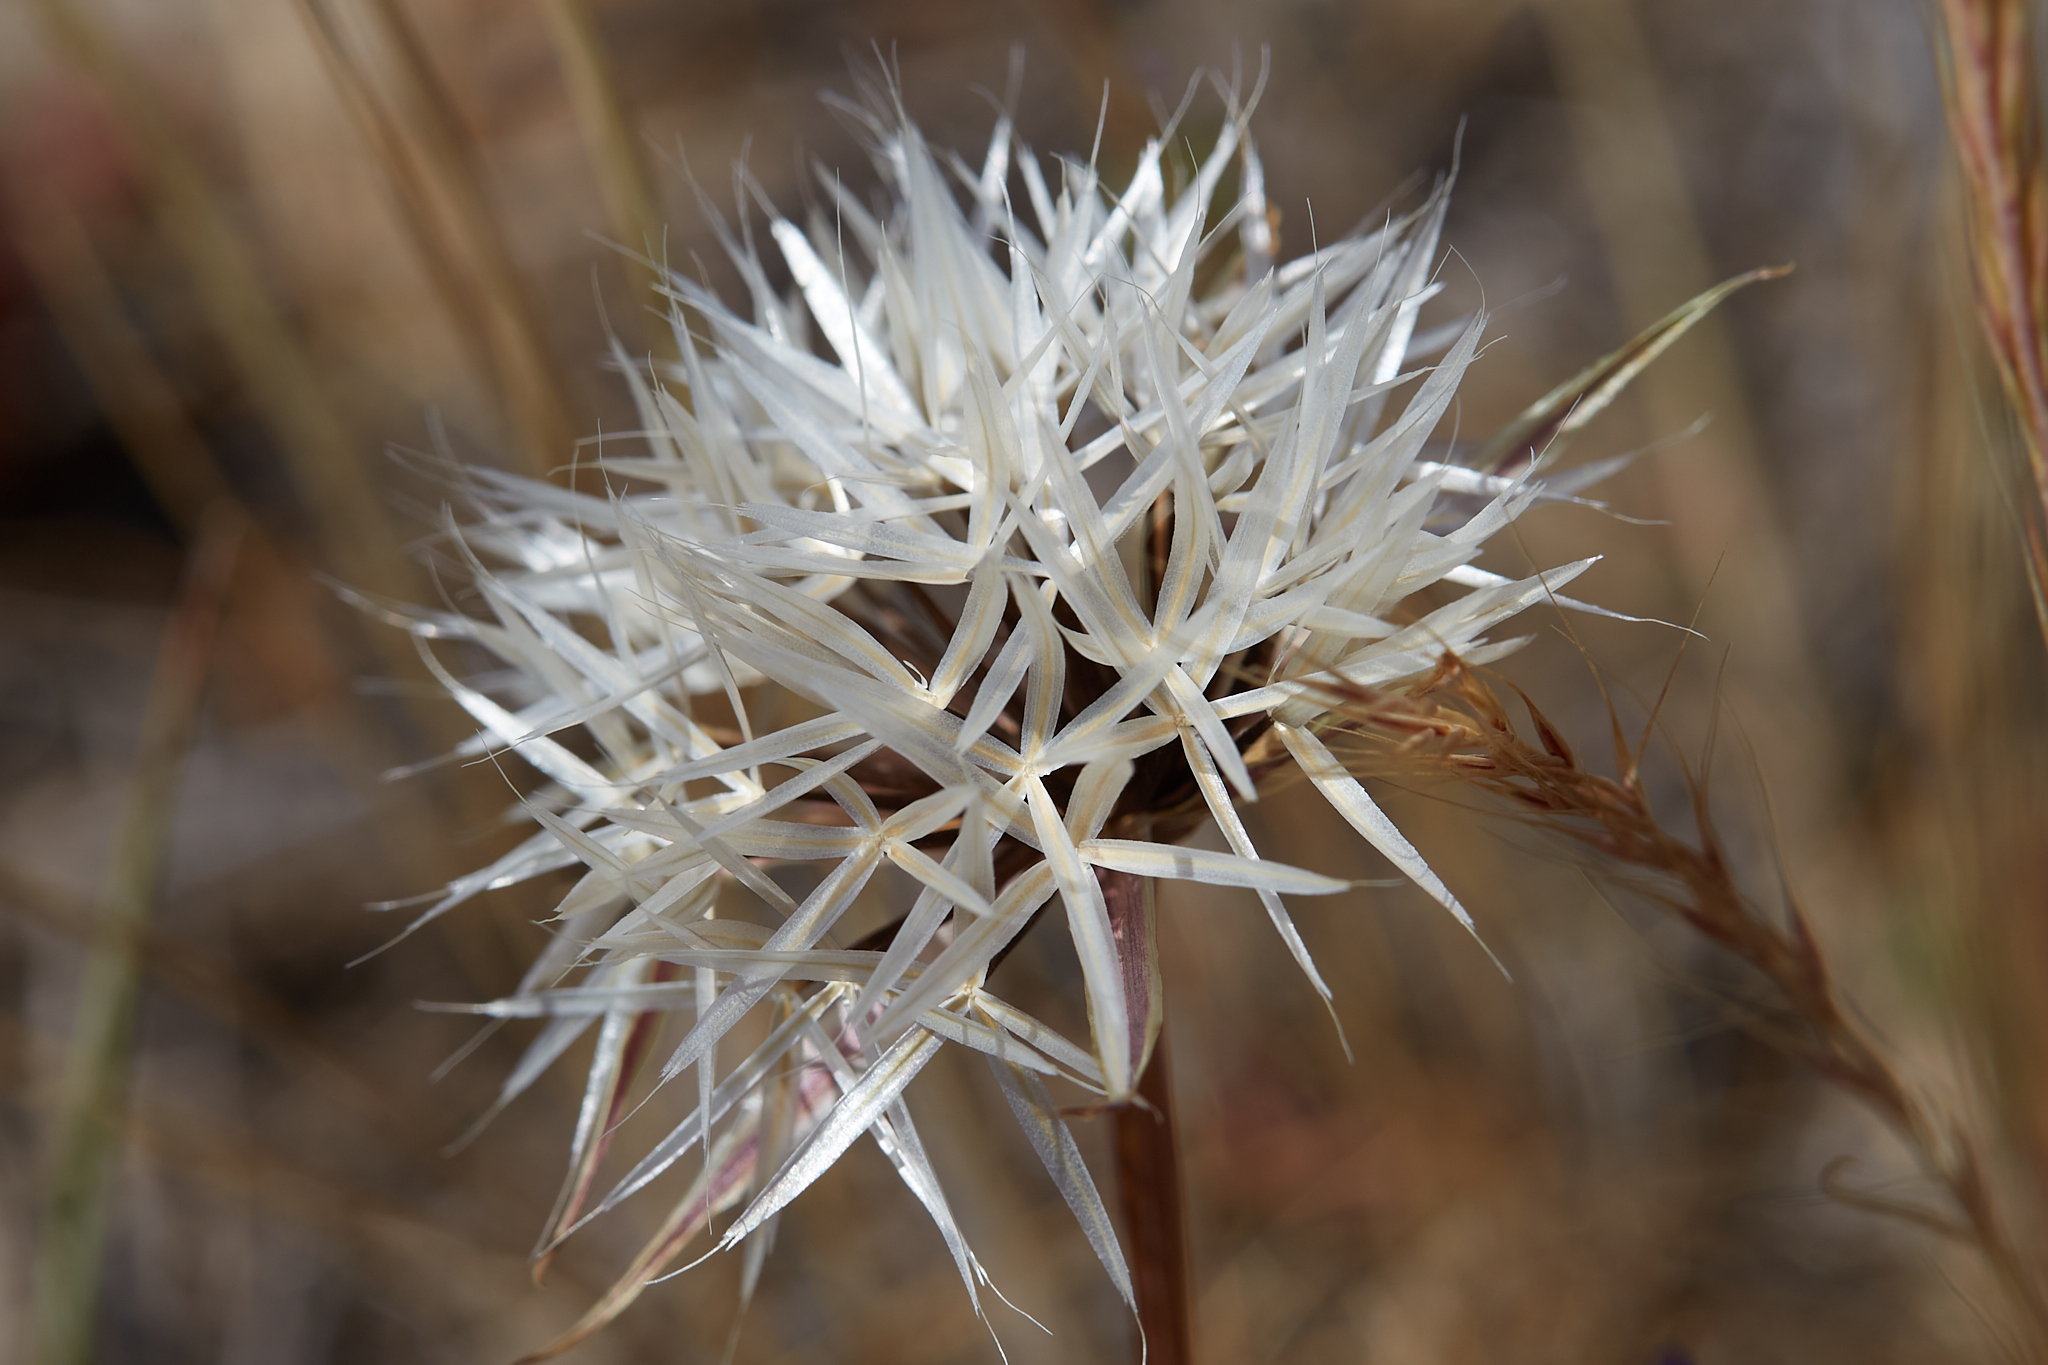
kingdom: Plantae
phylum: Tracheophyta
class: Magnoliopsida
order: Asterales
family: Asteraceae
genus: Microseris
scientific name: Microseris lindleyi
